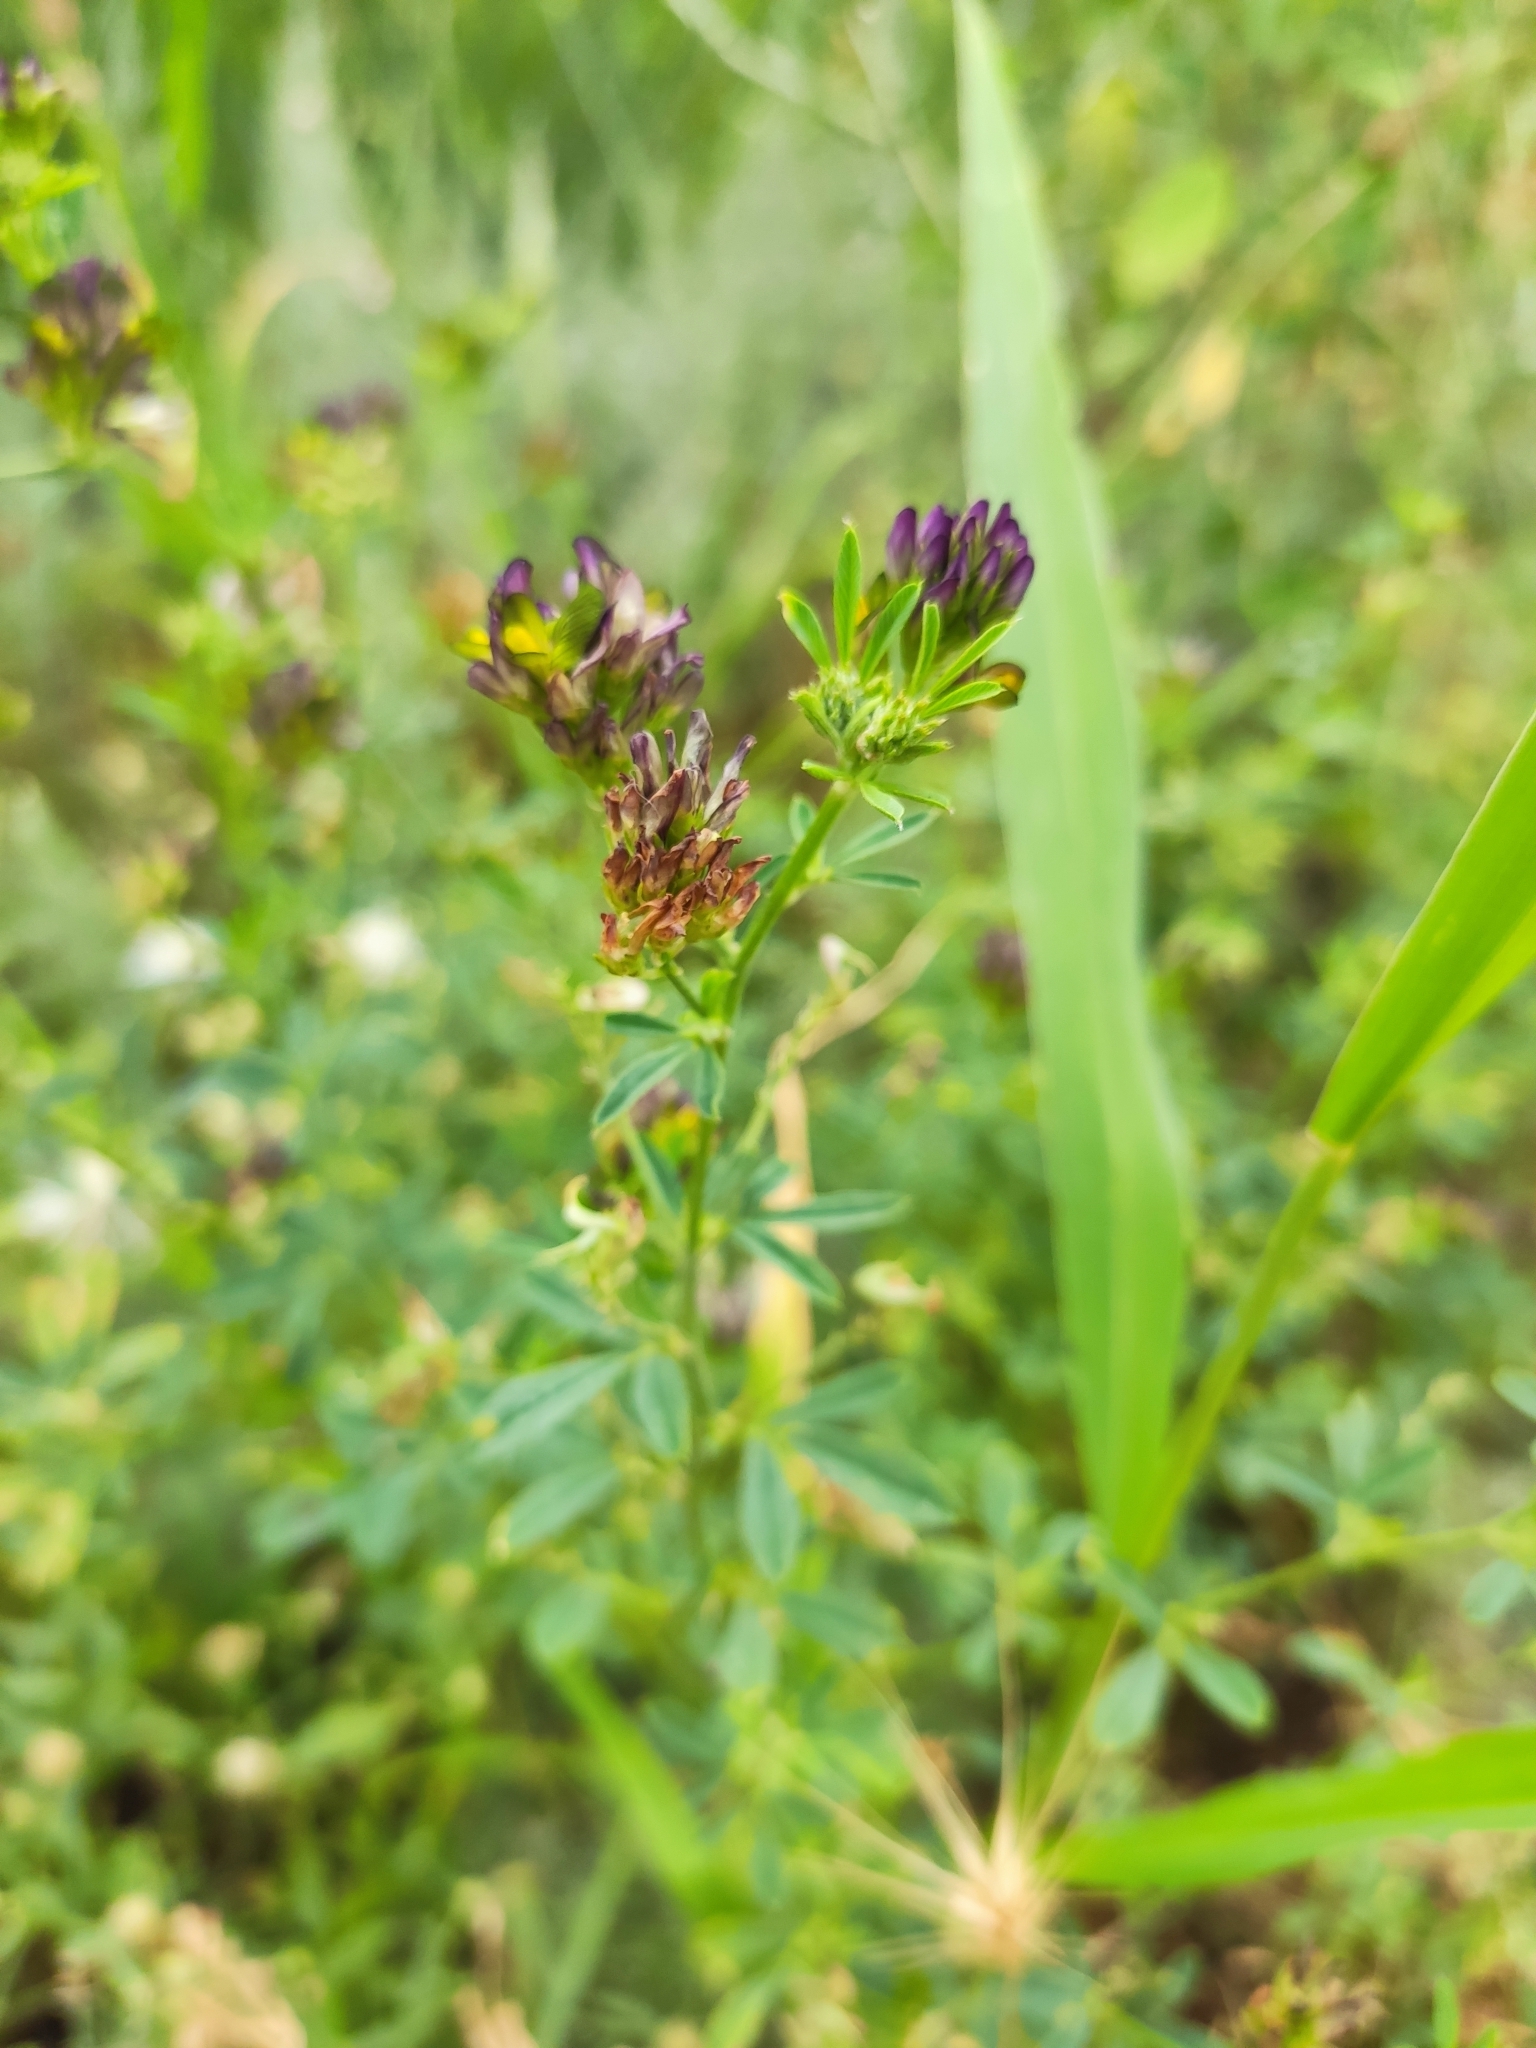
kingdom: Plantae
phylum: Tracheophyta
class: Magnoliopsida
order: Fabales
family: Fabaceae
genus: Medicago
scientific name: Medicago varia
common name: Sand lucerne
